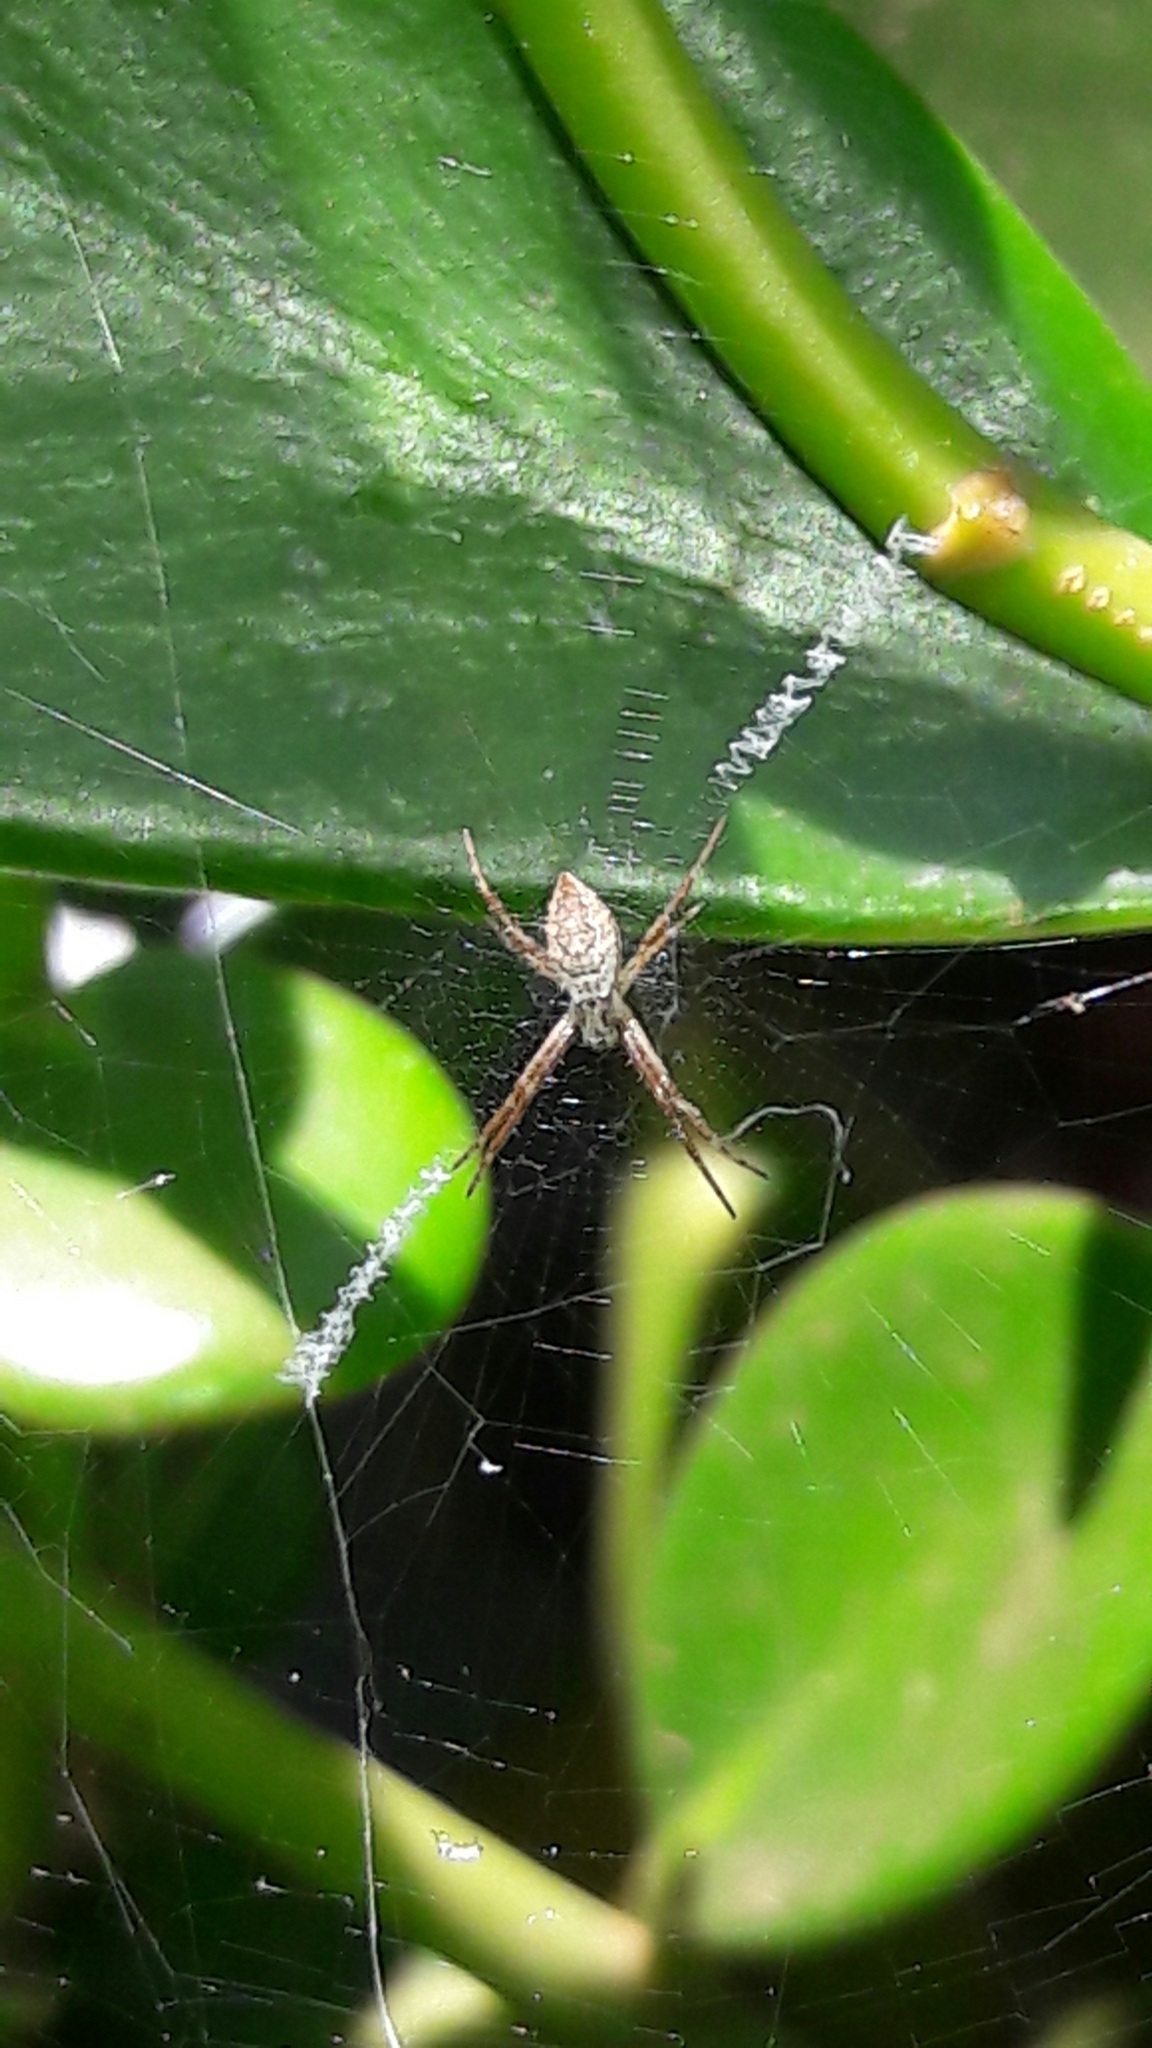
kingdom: Animalia
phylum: Arthropoda
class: Arachnida
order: Araneae
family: Araneidae
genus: Argiope
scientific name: Argiope argentata
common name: Orb weavers
